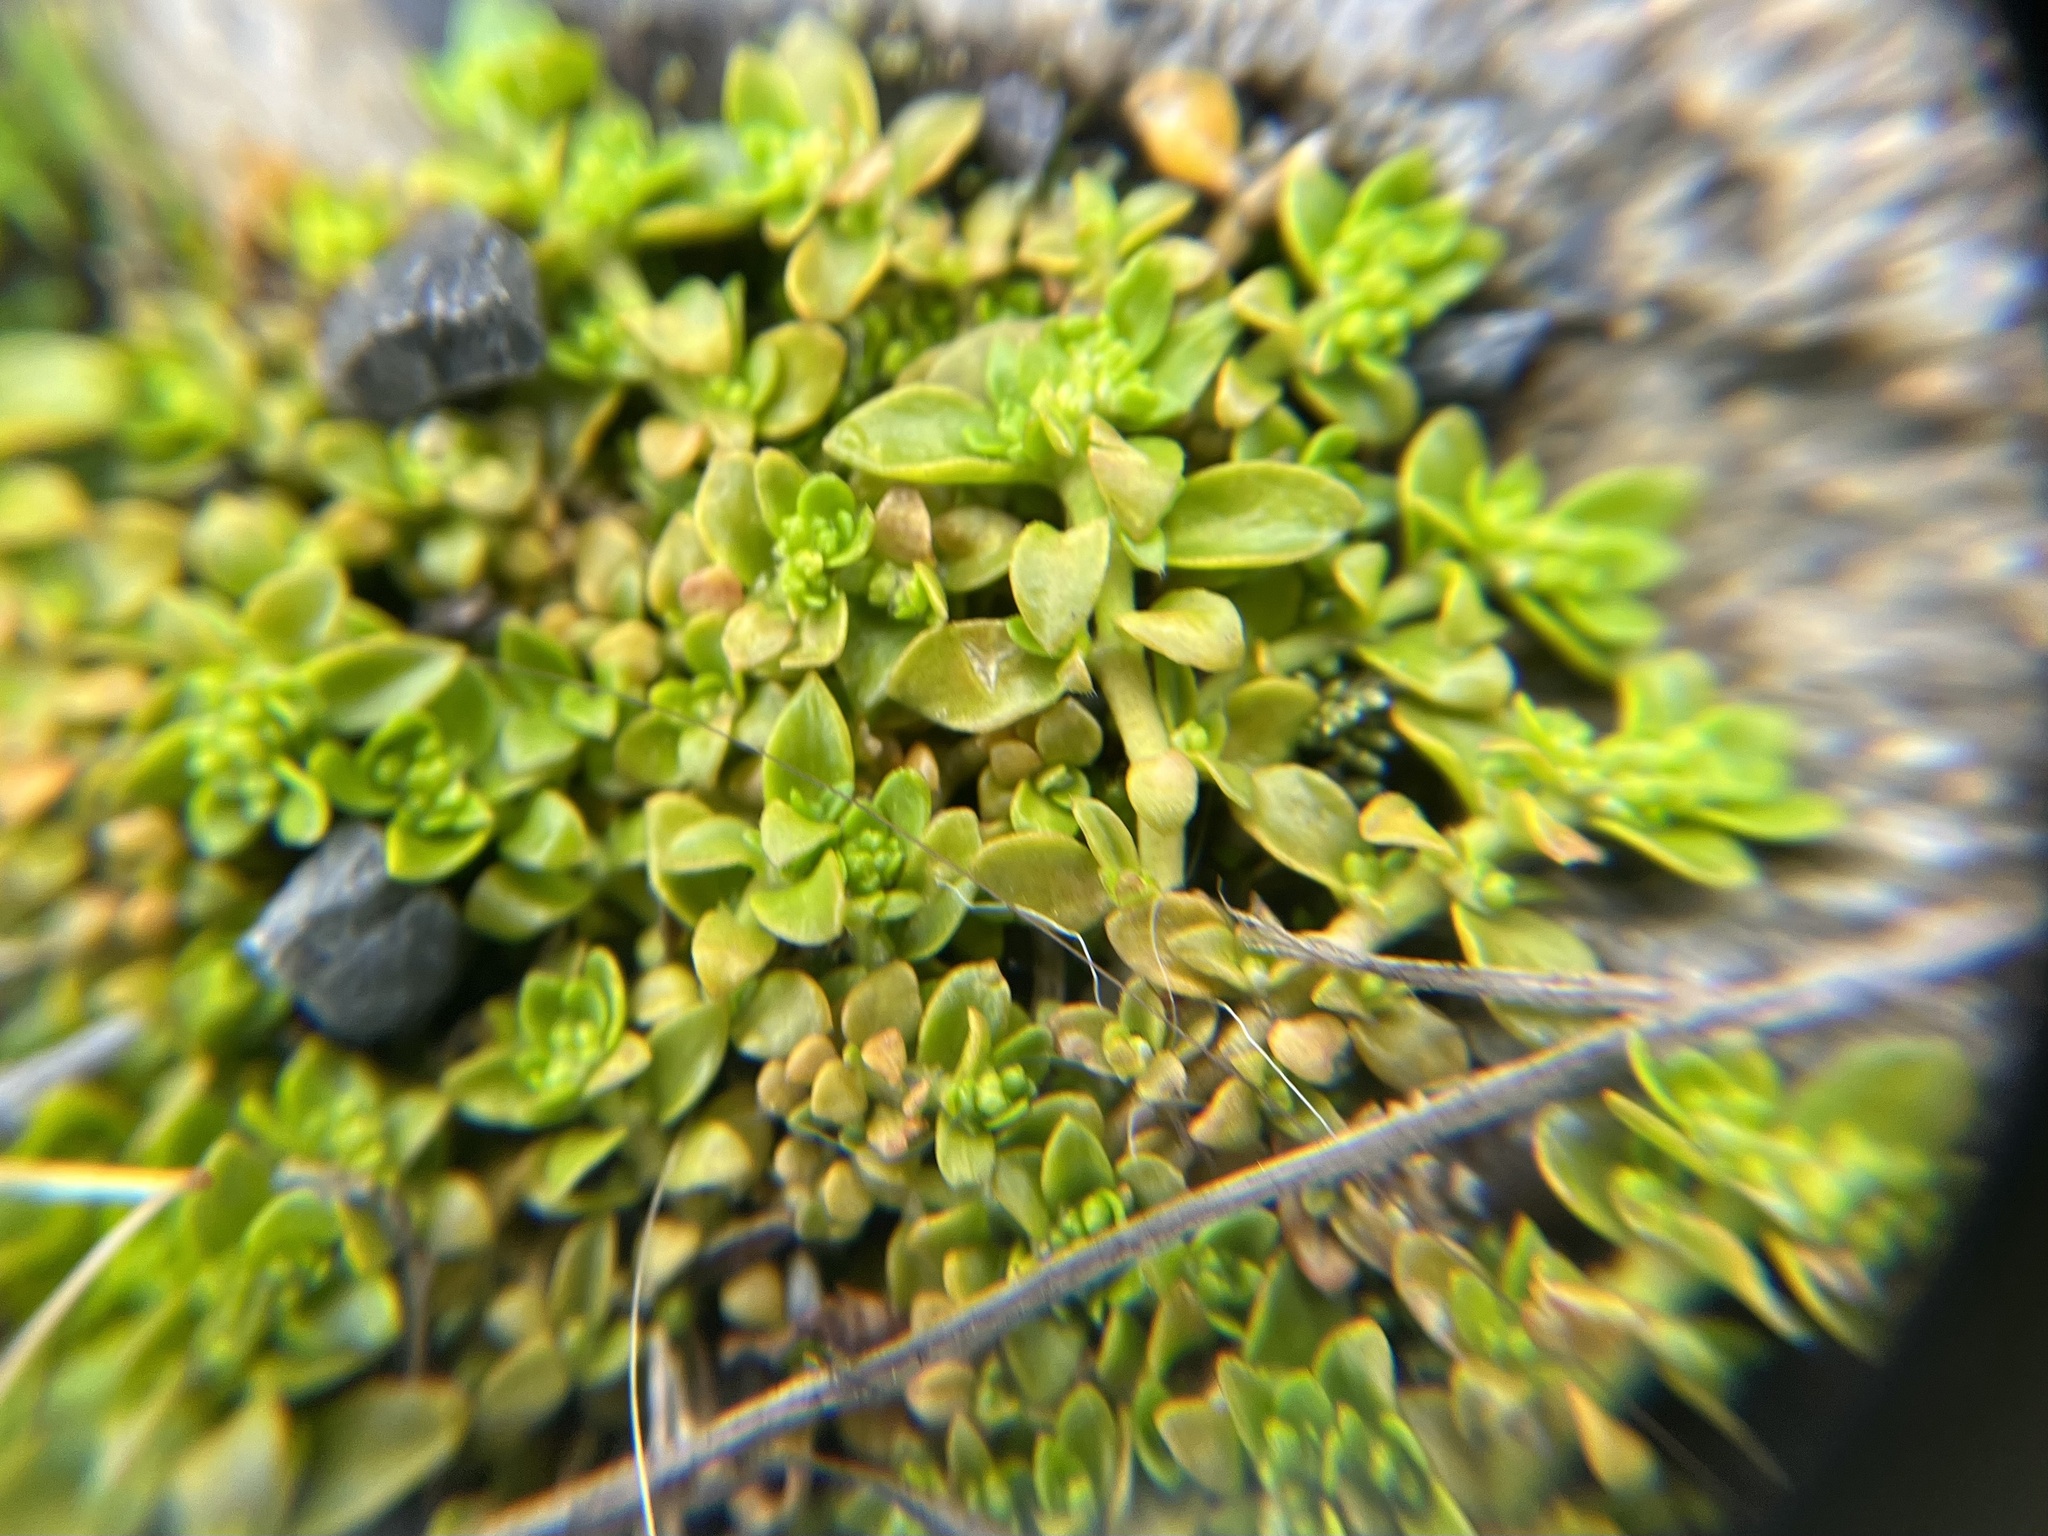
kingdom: Plantae
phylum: Tracheophyta
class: Magnoliopsida
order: Caryophyllales
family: Caryophyllaceae
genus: Herniaria
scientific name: Herniaria glabra
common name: Smooth rupturewort
